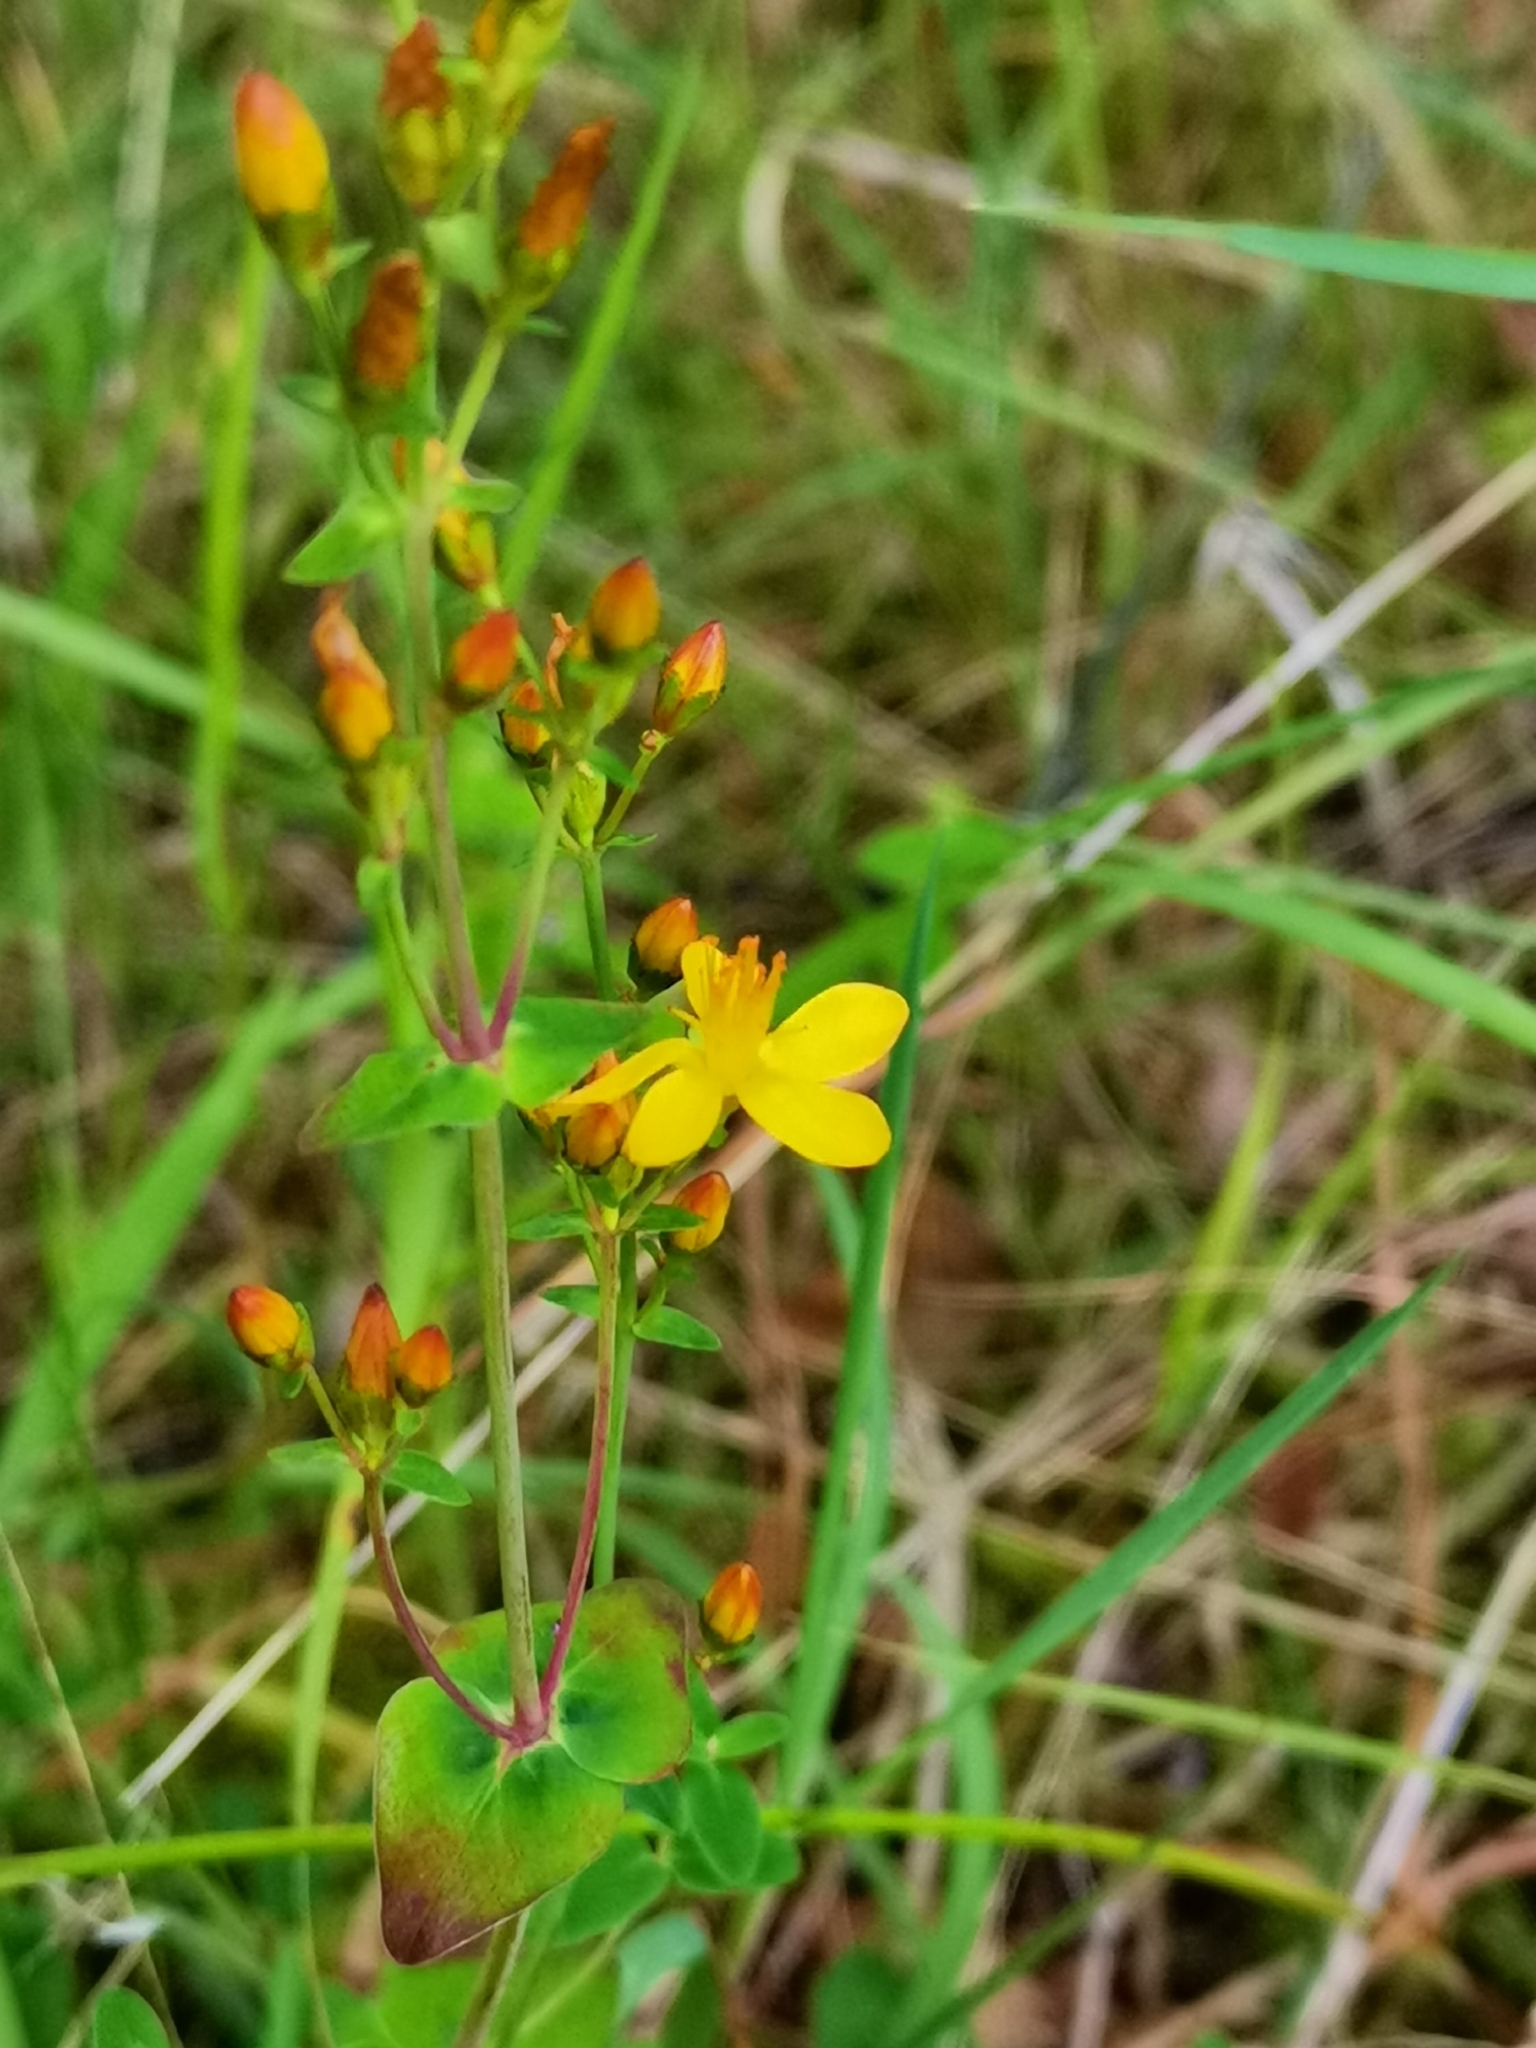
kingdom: Plantae
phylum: Tracheophyta
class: Magnoliopsida
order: Malpighiales
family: Hypericaceae
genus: Hypericum
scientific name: Hypericum pulchrum
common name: Slender st. john's-wort
